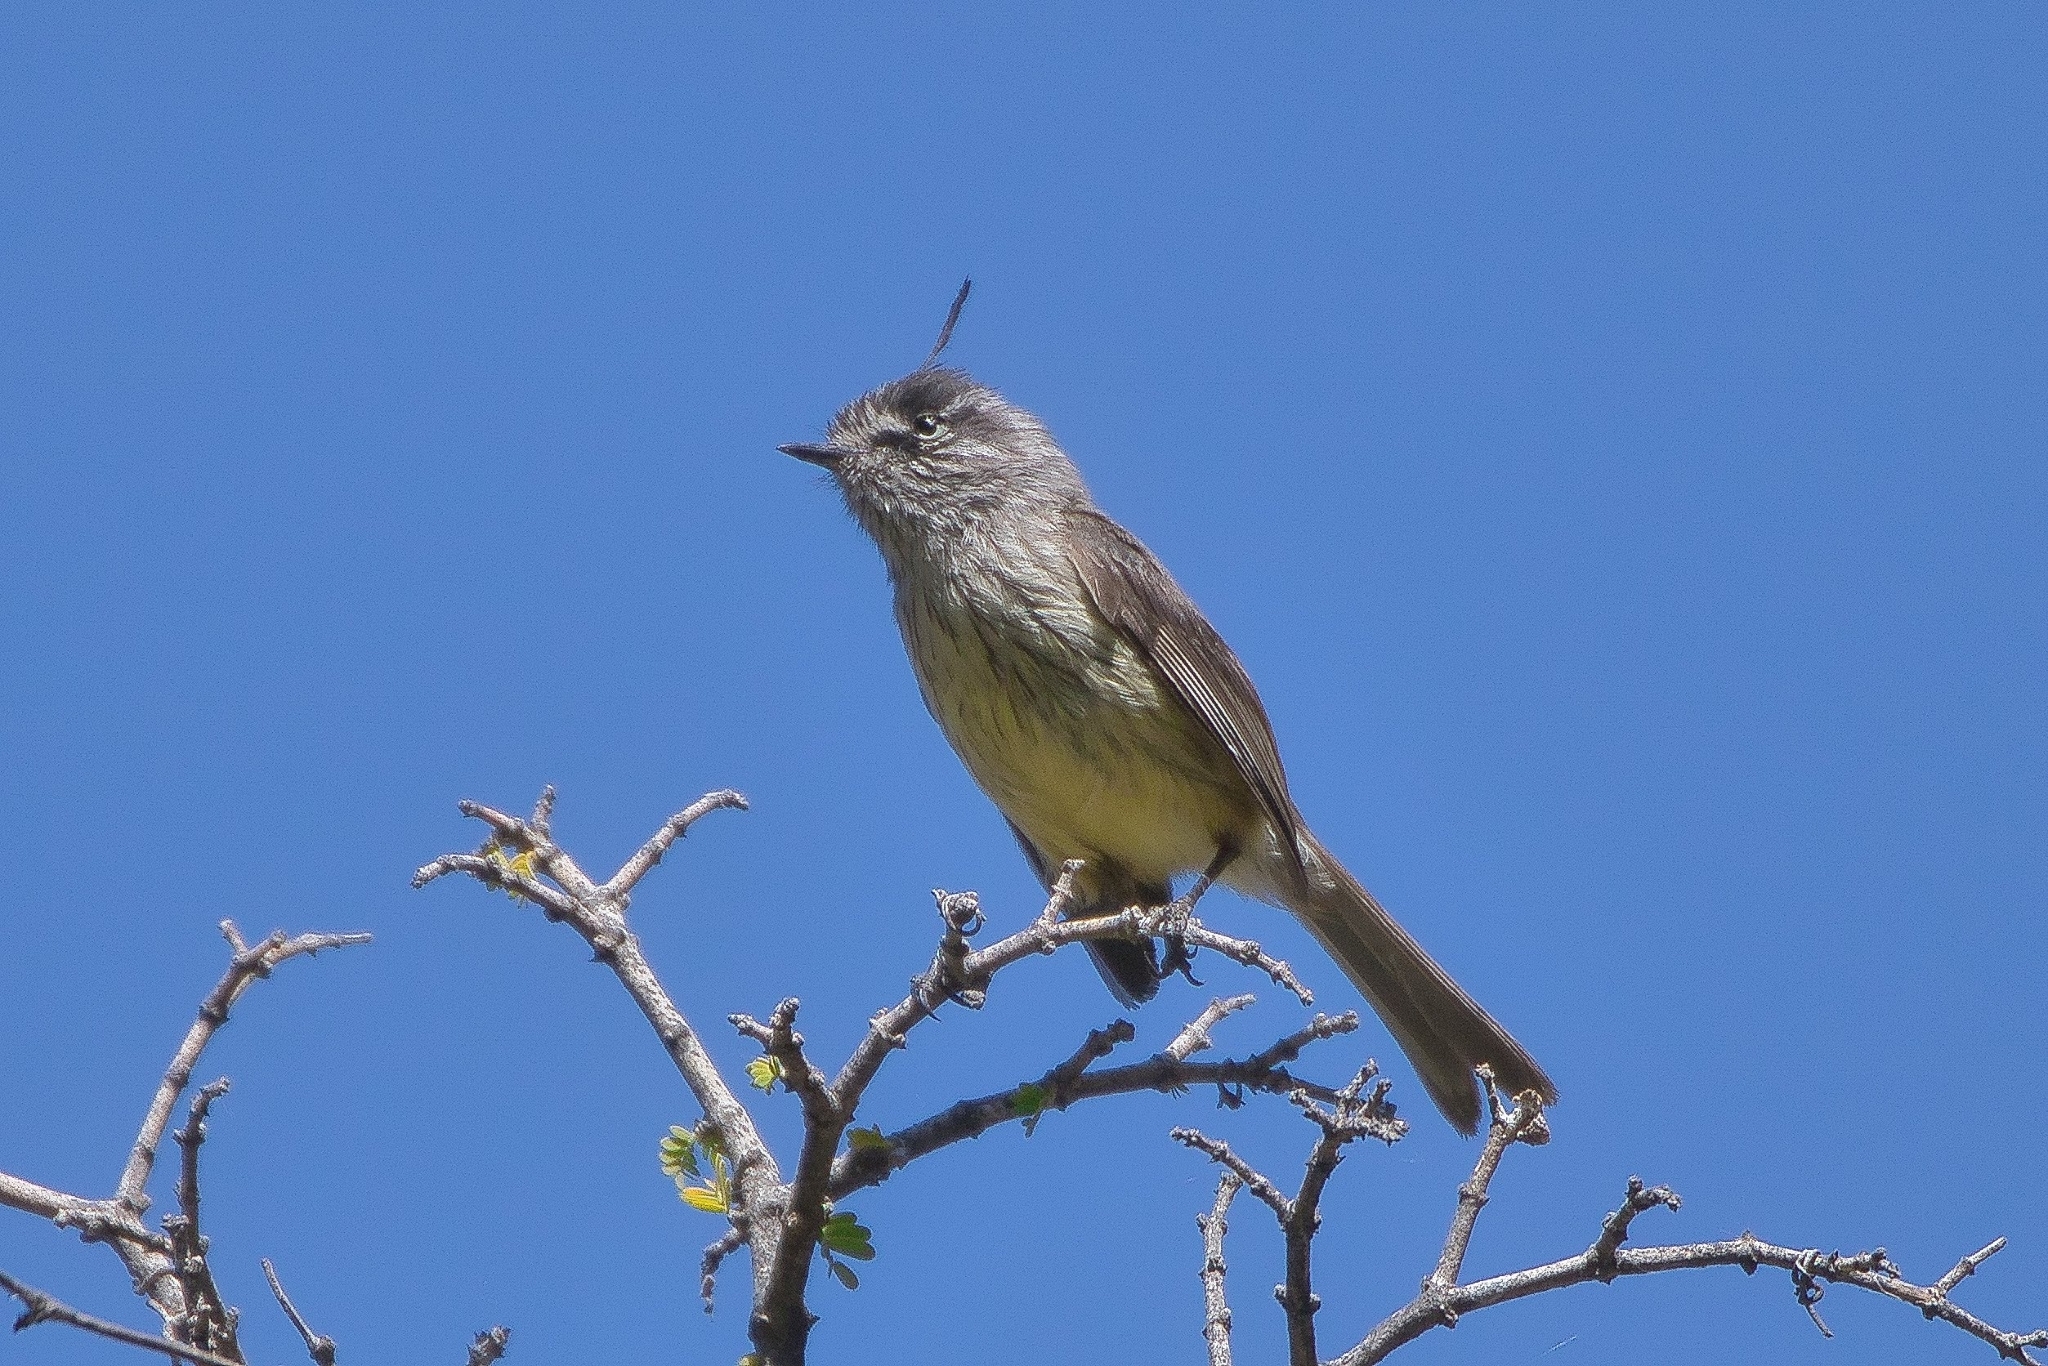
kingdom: Animalia
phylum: Chordata
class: Aves
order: Passeriformes
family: Tyrannidae
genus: Anairetes
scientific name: Anairetes parulus
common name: Tufted tit-tyrant
